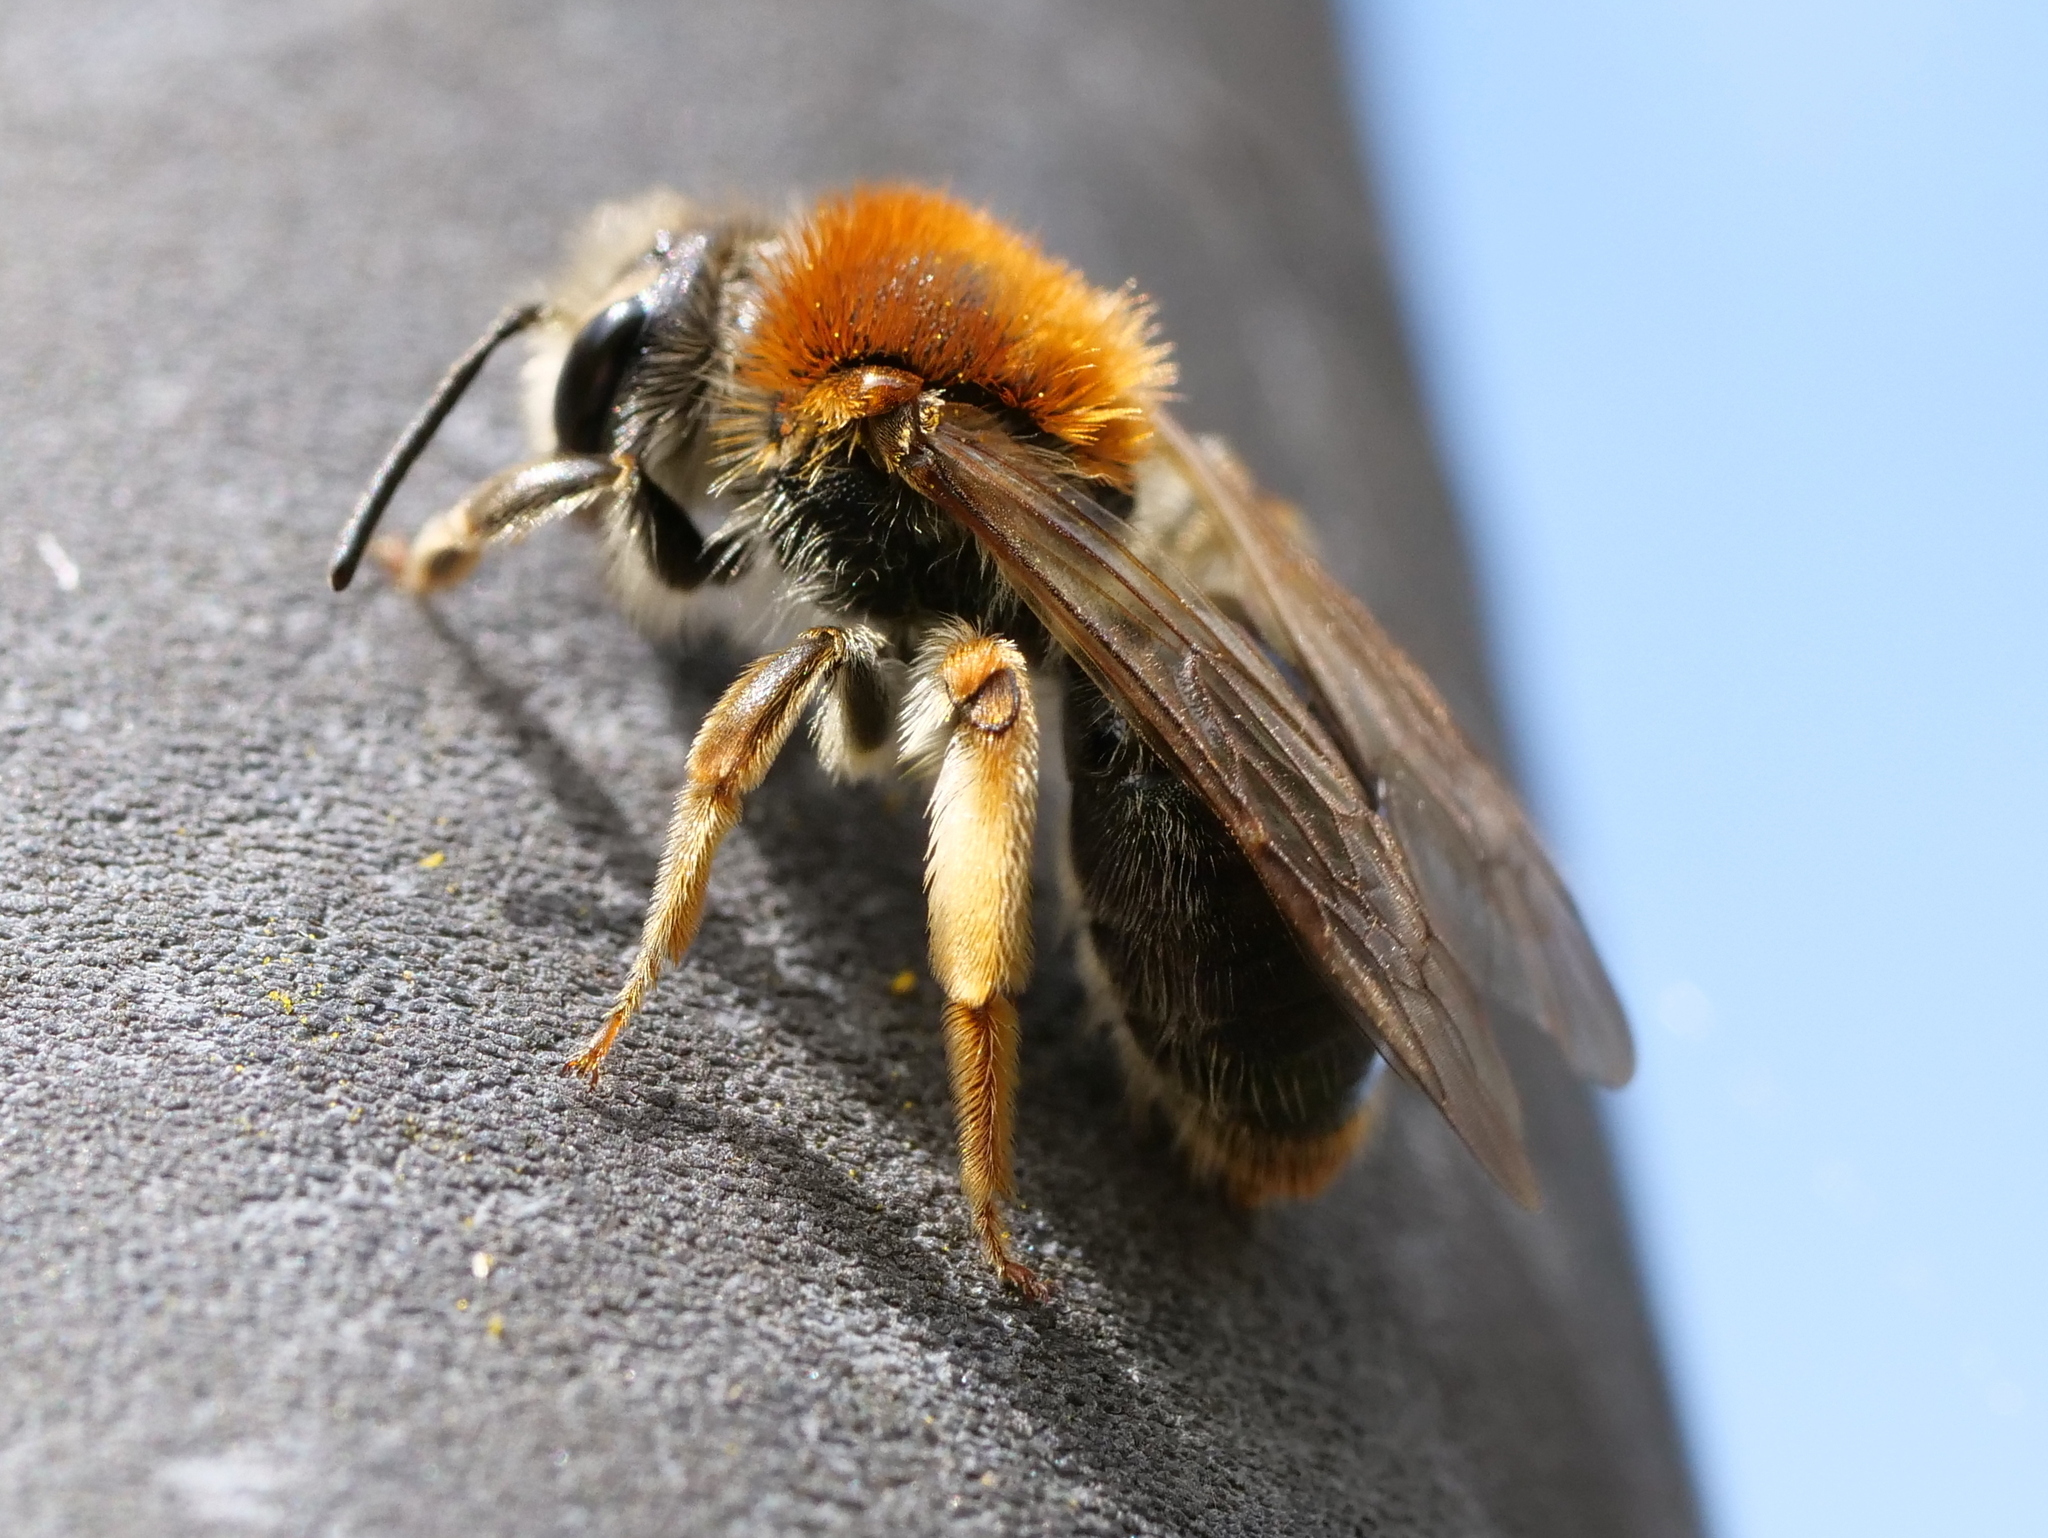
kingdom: Animalia
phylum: Arthropoda
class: Insecta
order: Hymenoptera
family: Andrenidae
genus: Andrena
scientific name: Andrena haemorrhoa
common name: Early mining bee
